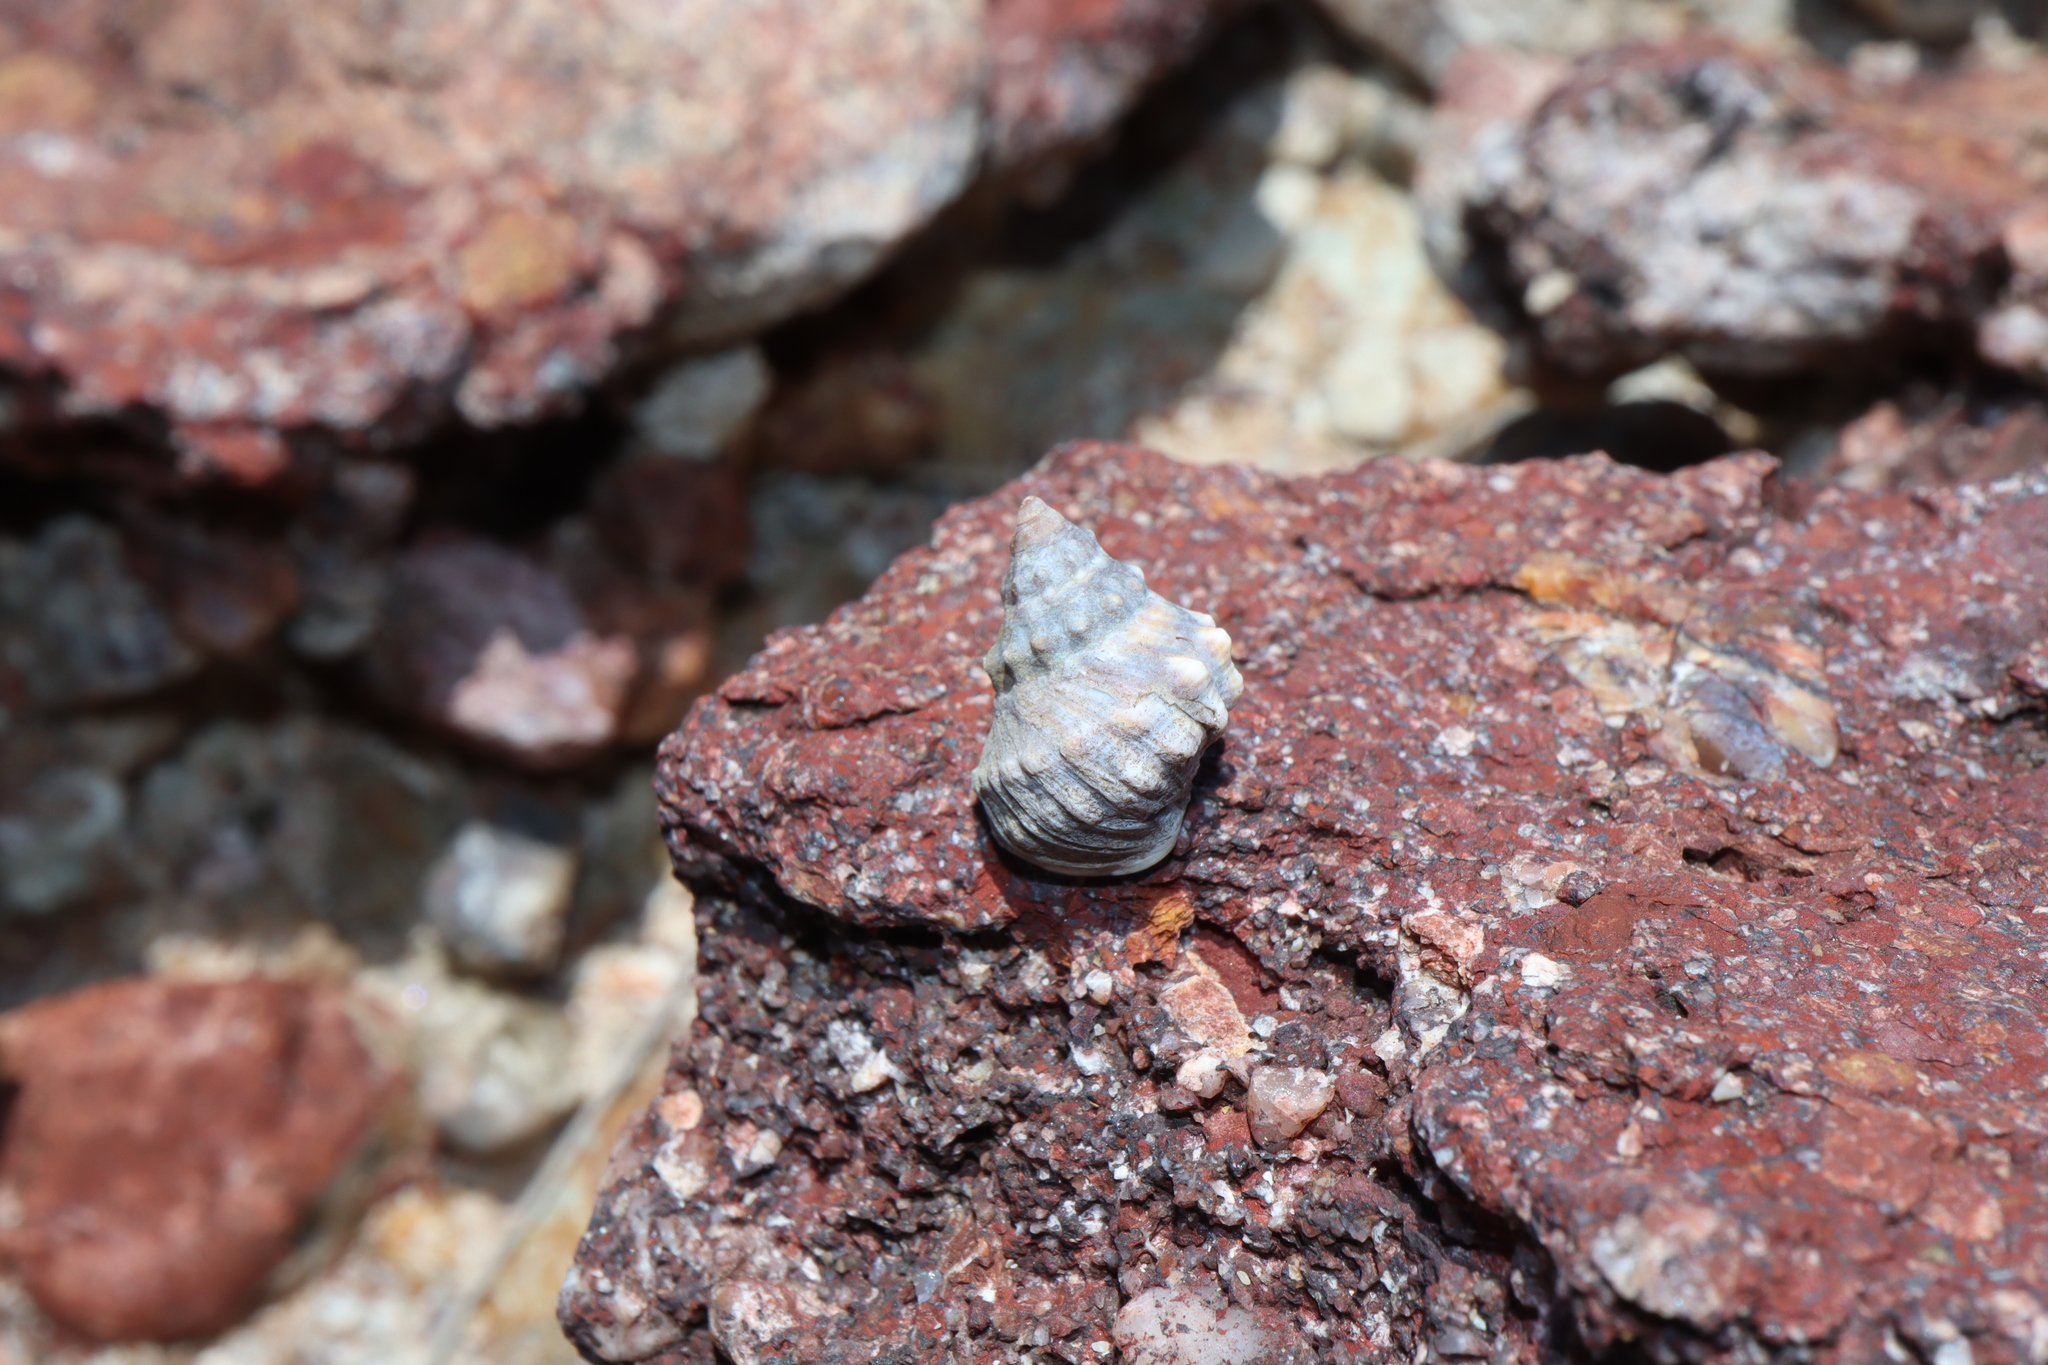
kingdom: Animalia
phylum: Mollusca
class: Gastropoda
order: Littorinimorpha
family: Littorinidae
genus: Nodilittorina
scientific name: Nodilittorina pyramidalis
